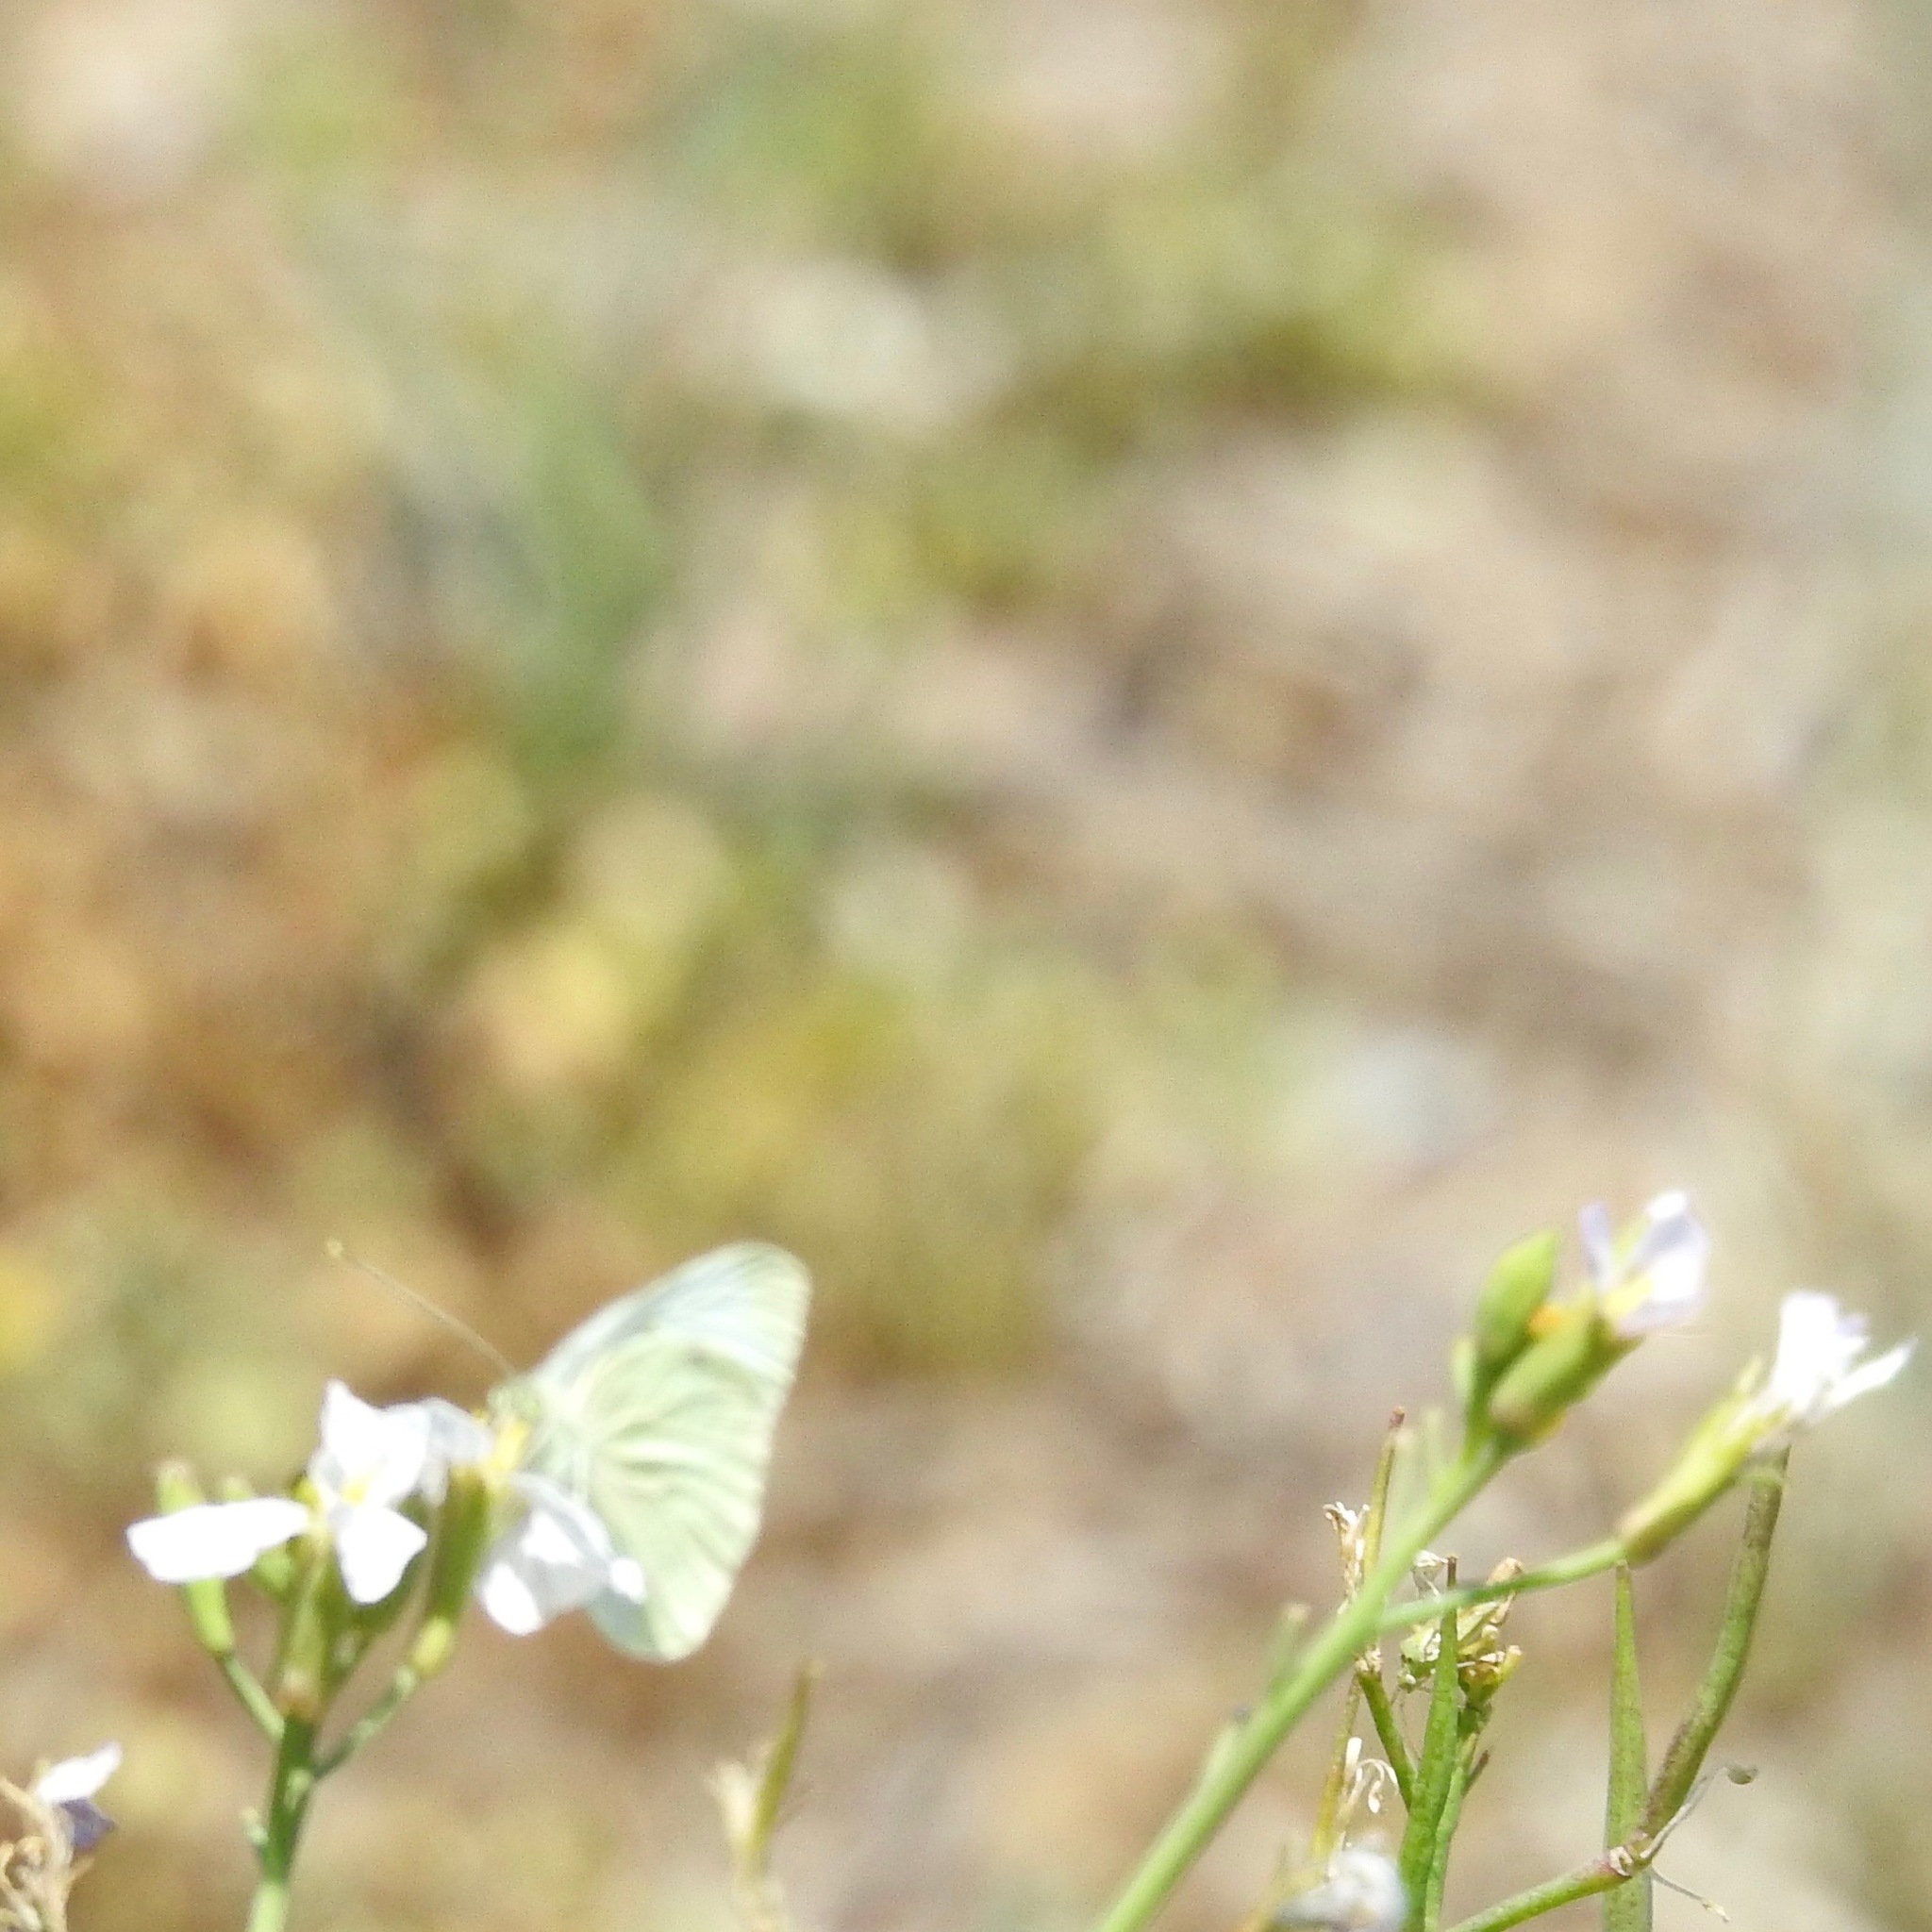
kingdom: Animalia
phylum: Arthropoda
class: Insecta
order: Lepidoptera
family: Pieridae
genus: Pieris
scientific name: Pieris rapae
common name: Small white
